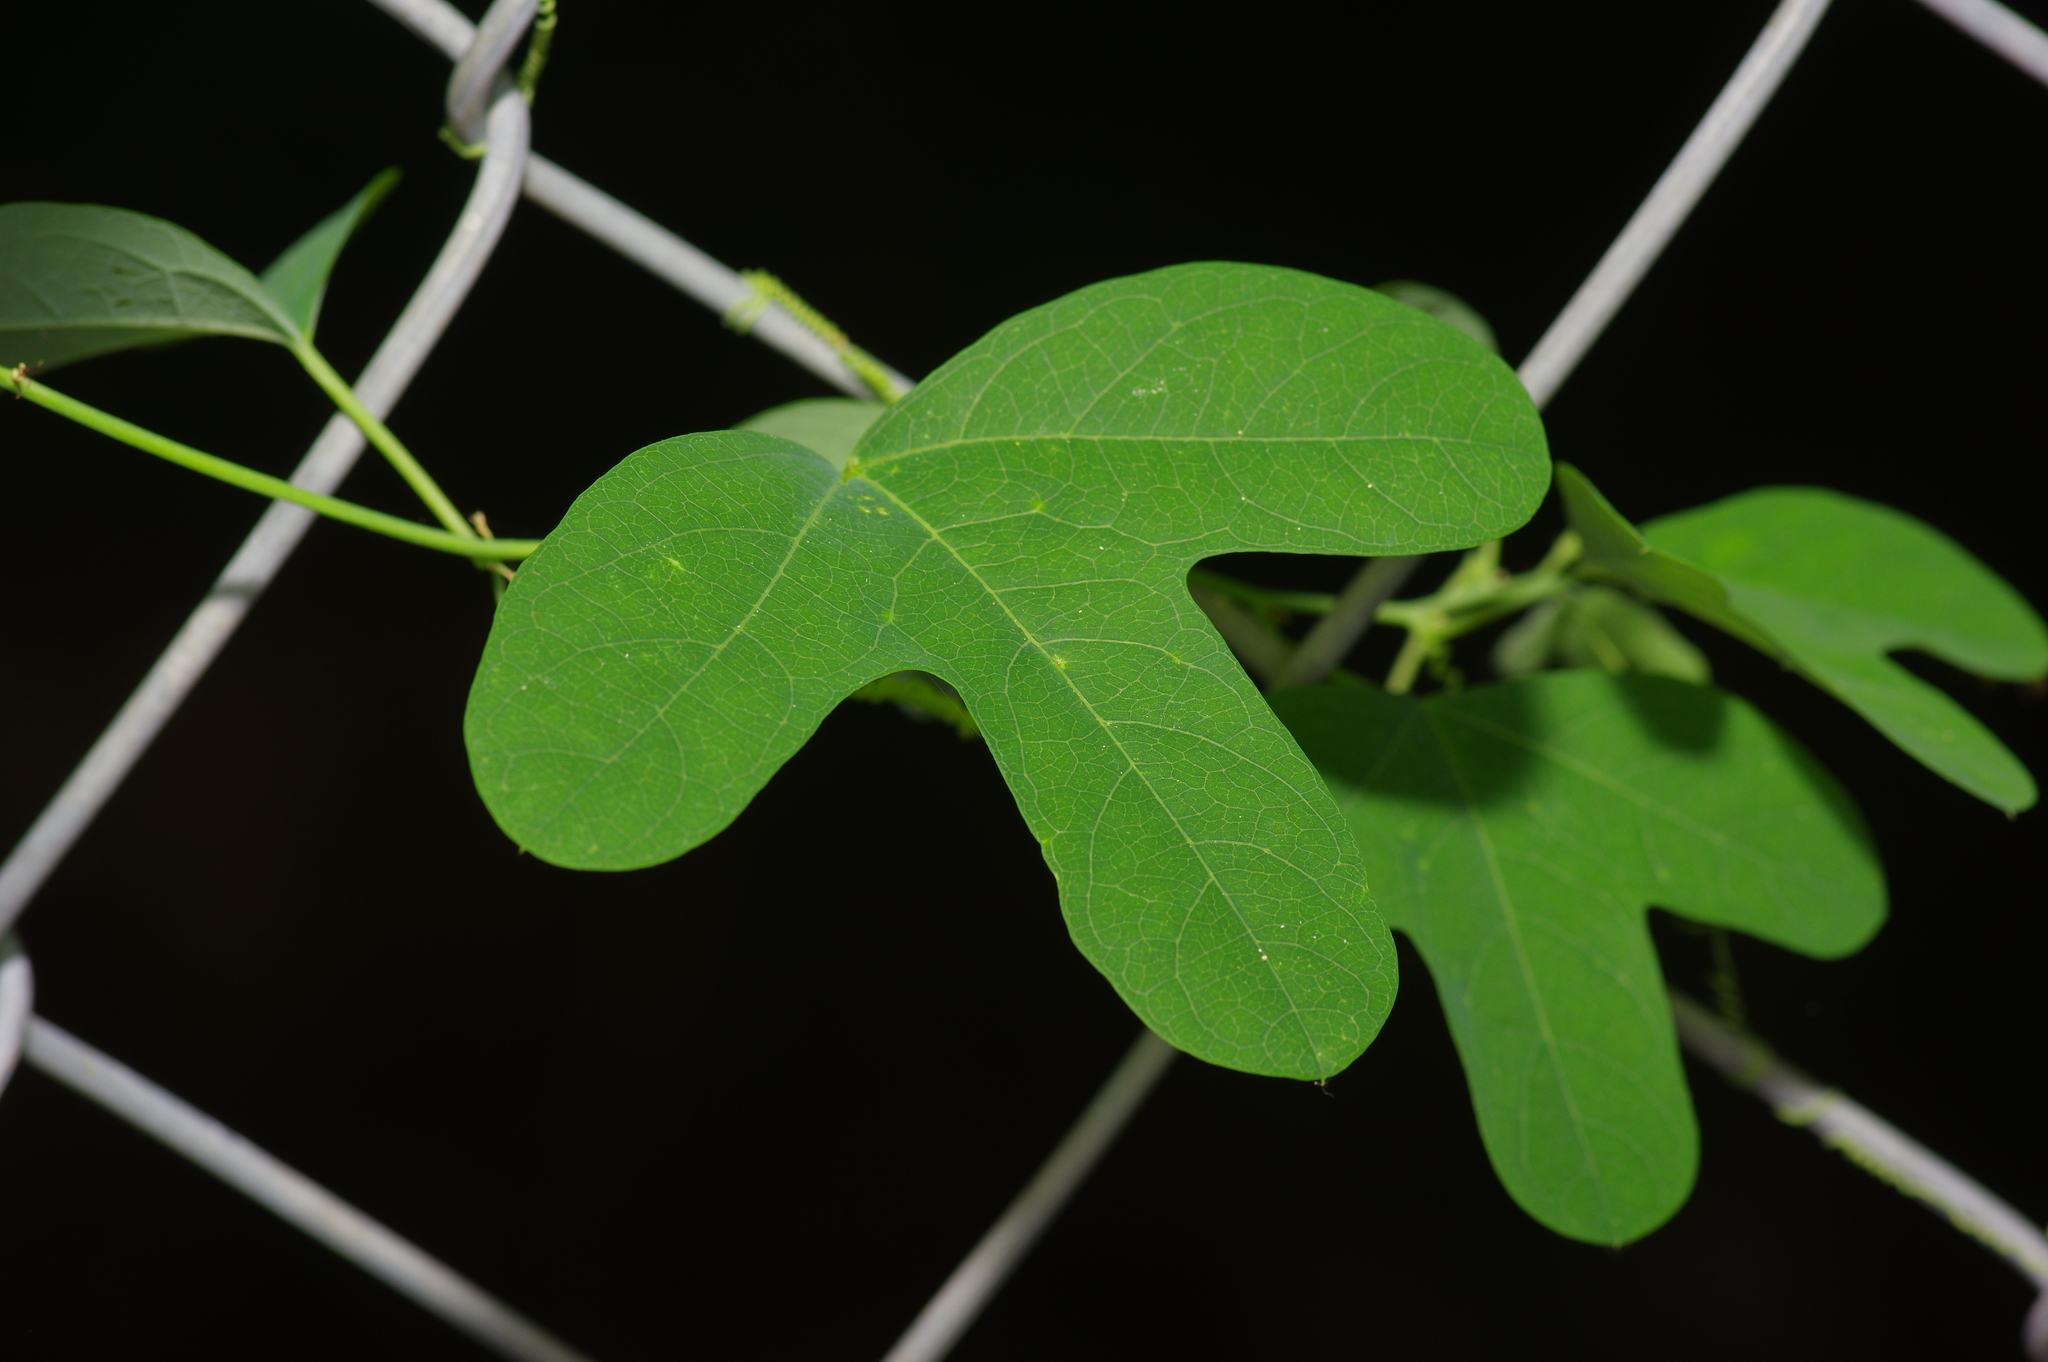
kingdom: Plantae
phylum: Tracheophyta
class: Magnoliopsida
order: Malpighiales
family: Passifloraceae
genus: Passiflora
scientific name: Passiflora affinis
